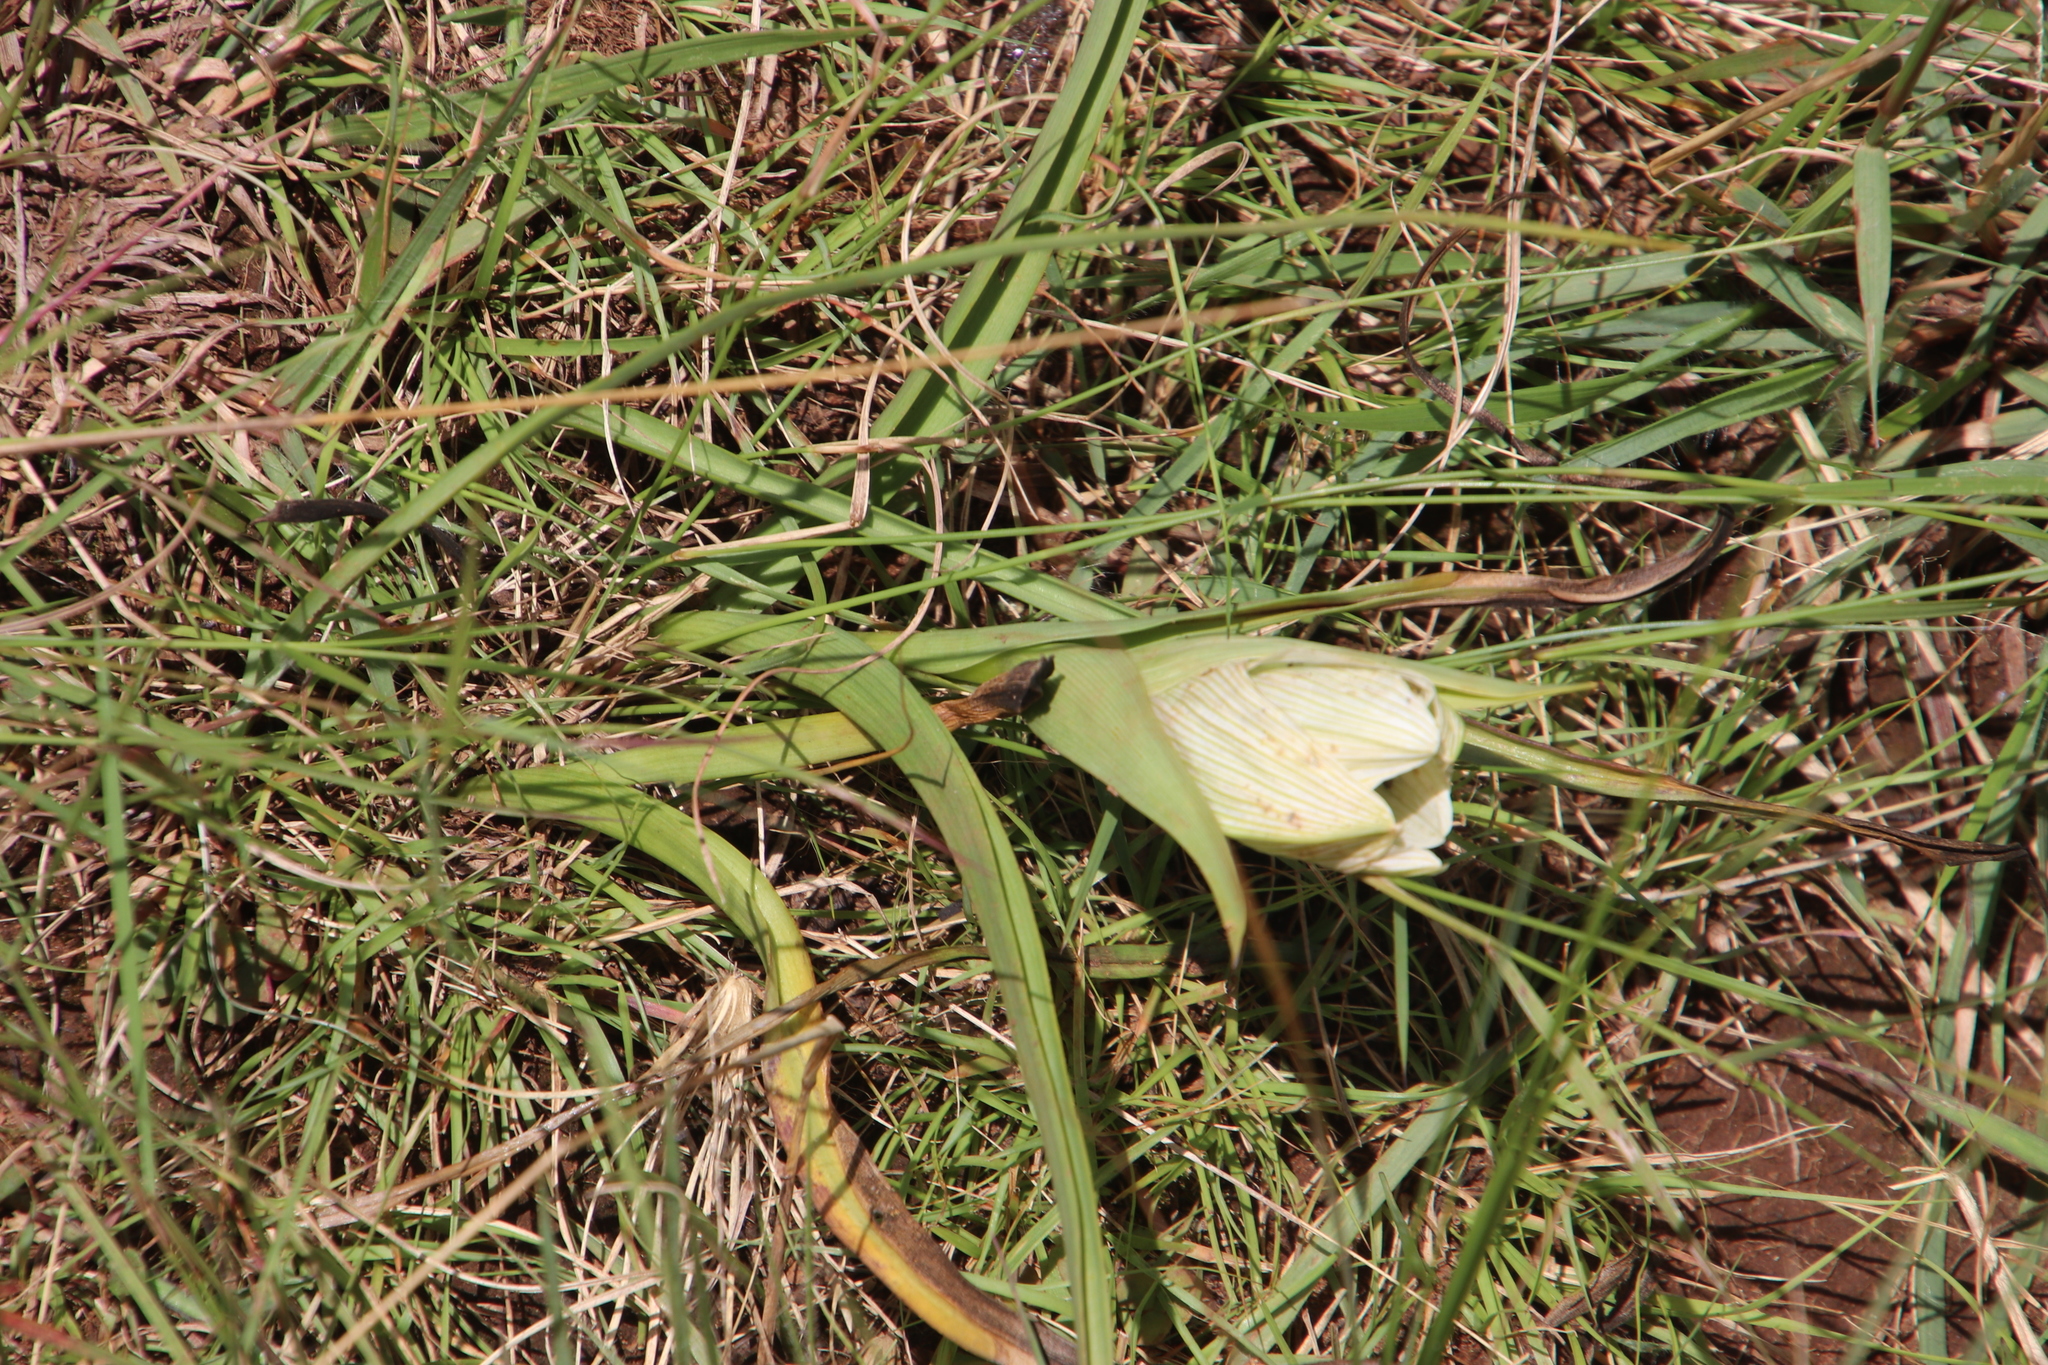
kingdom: Plantae
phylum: Tracheophyta
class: Liliopsida
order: Liliales
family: Colchicaceae
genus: Colchicum
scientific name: Colchicum striatum
